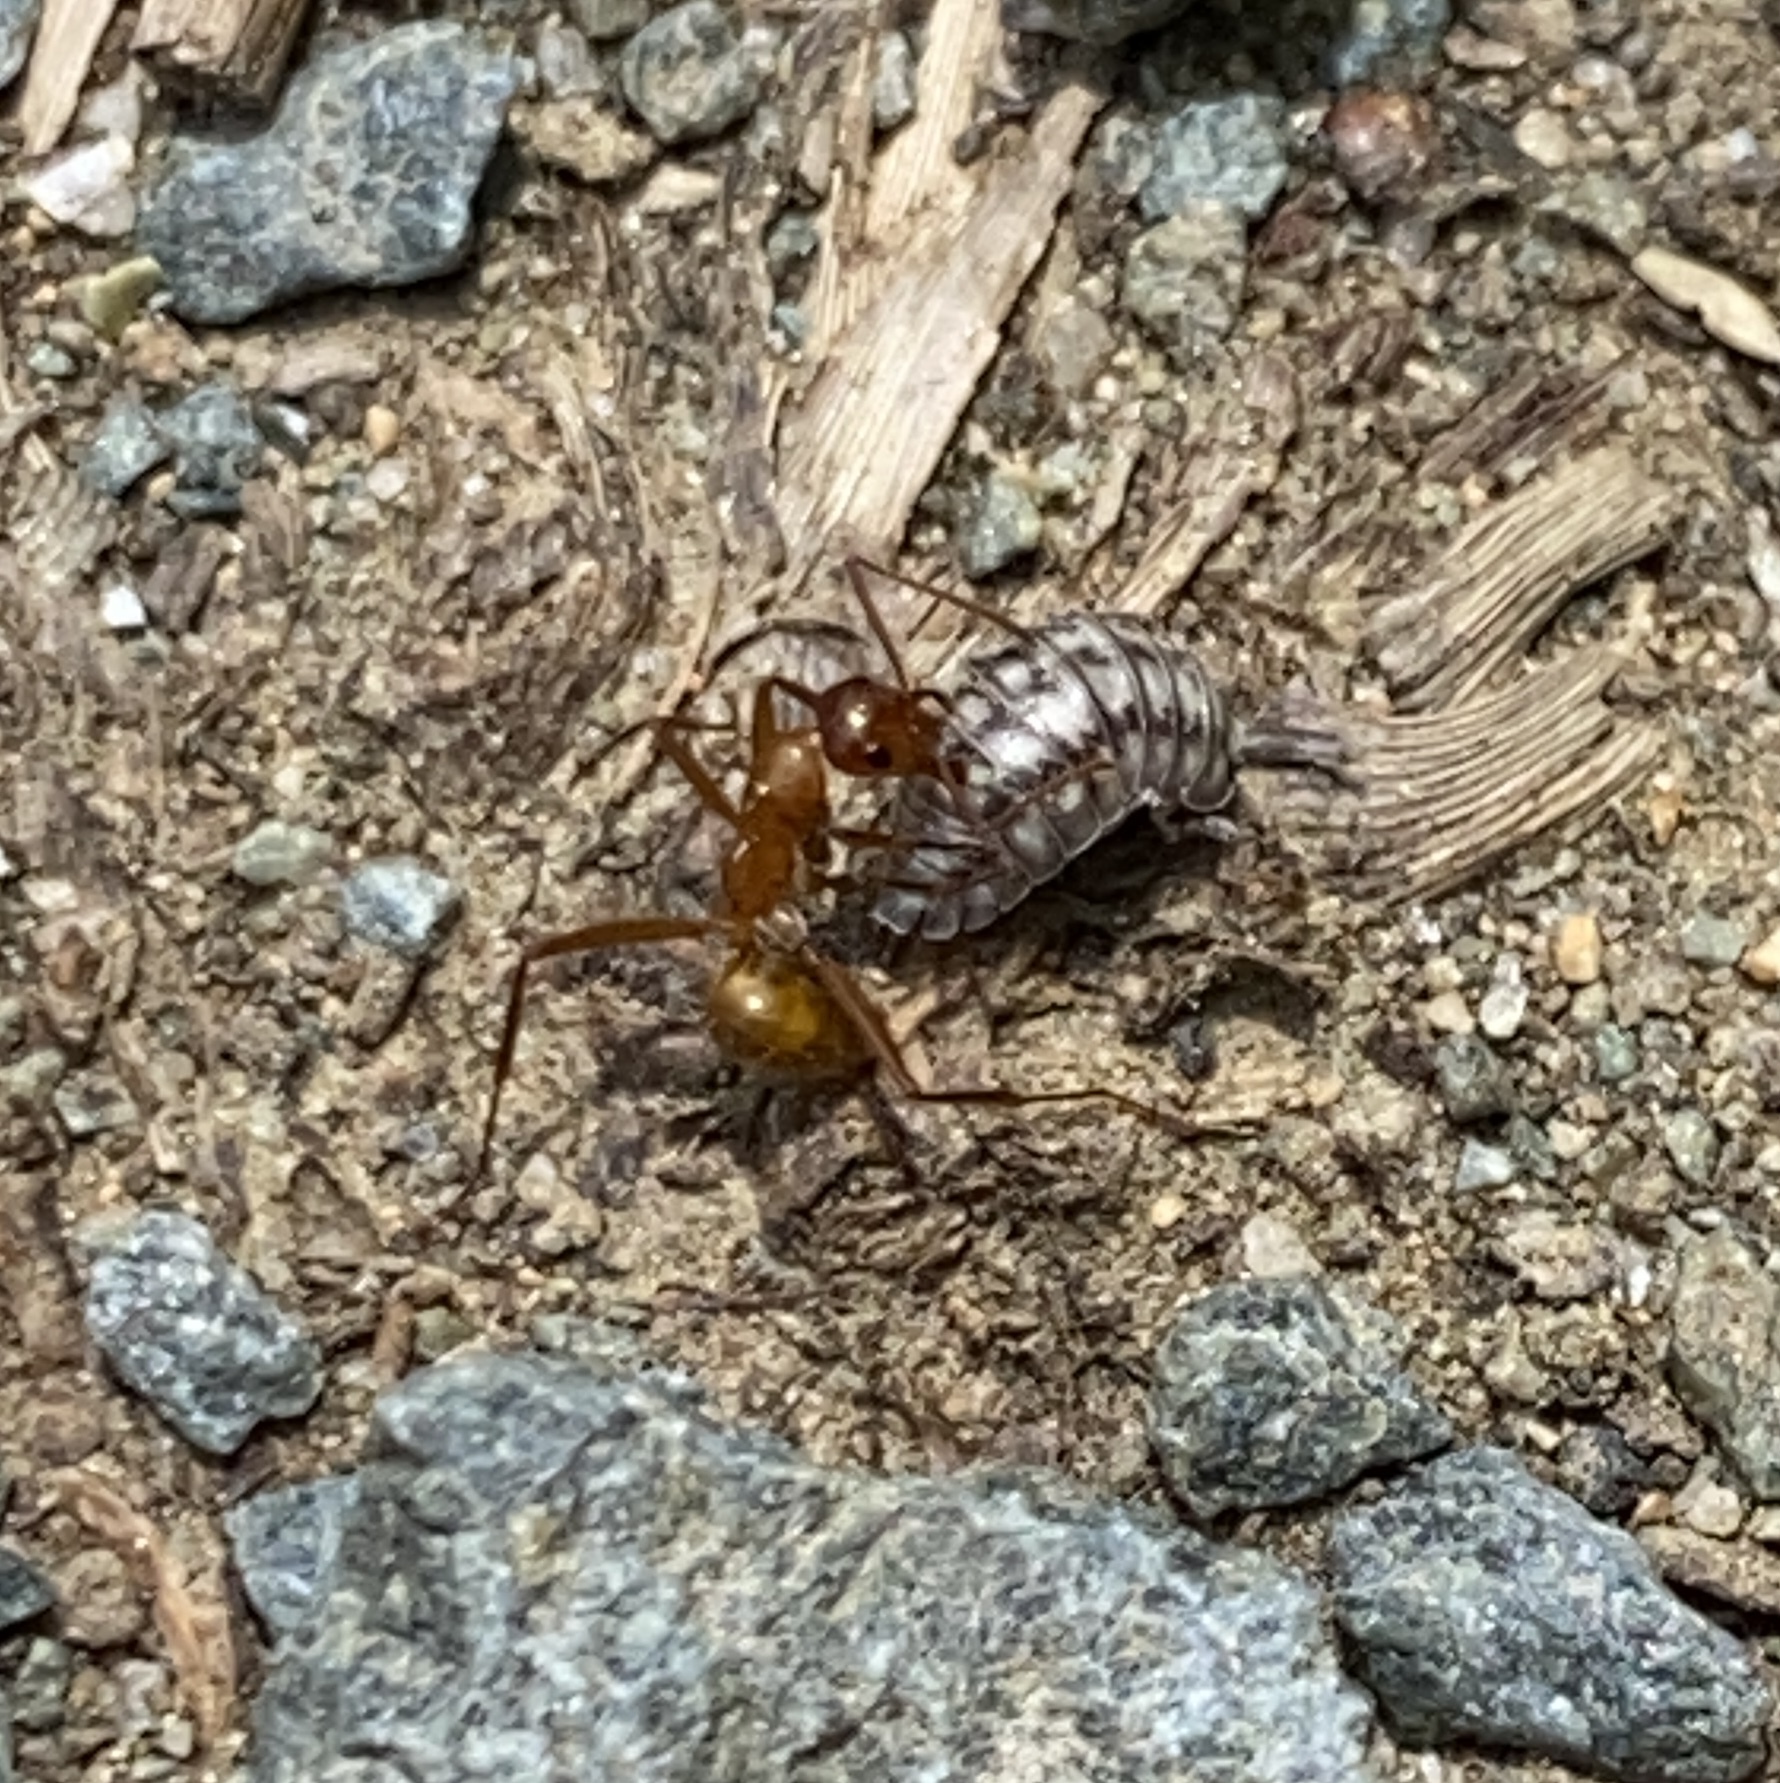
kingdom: Animalia
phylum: Arthropoda
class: Malacostraca
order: Isopoda
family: Armadillidiidae
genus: Armadillidium
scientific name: Armadillidium nasatum
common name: Isopod
